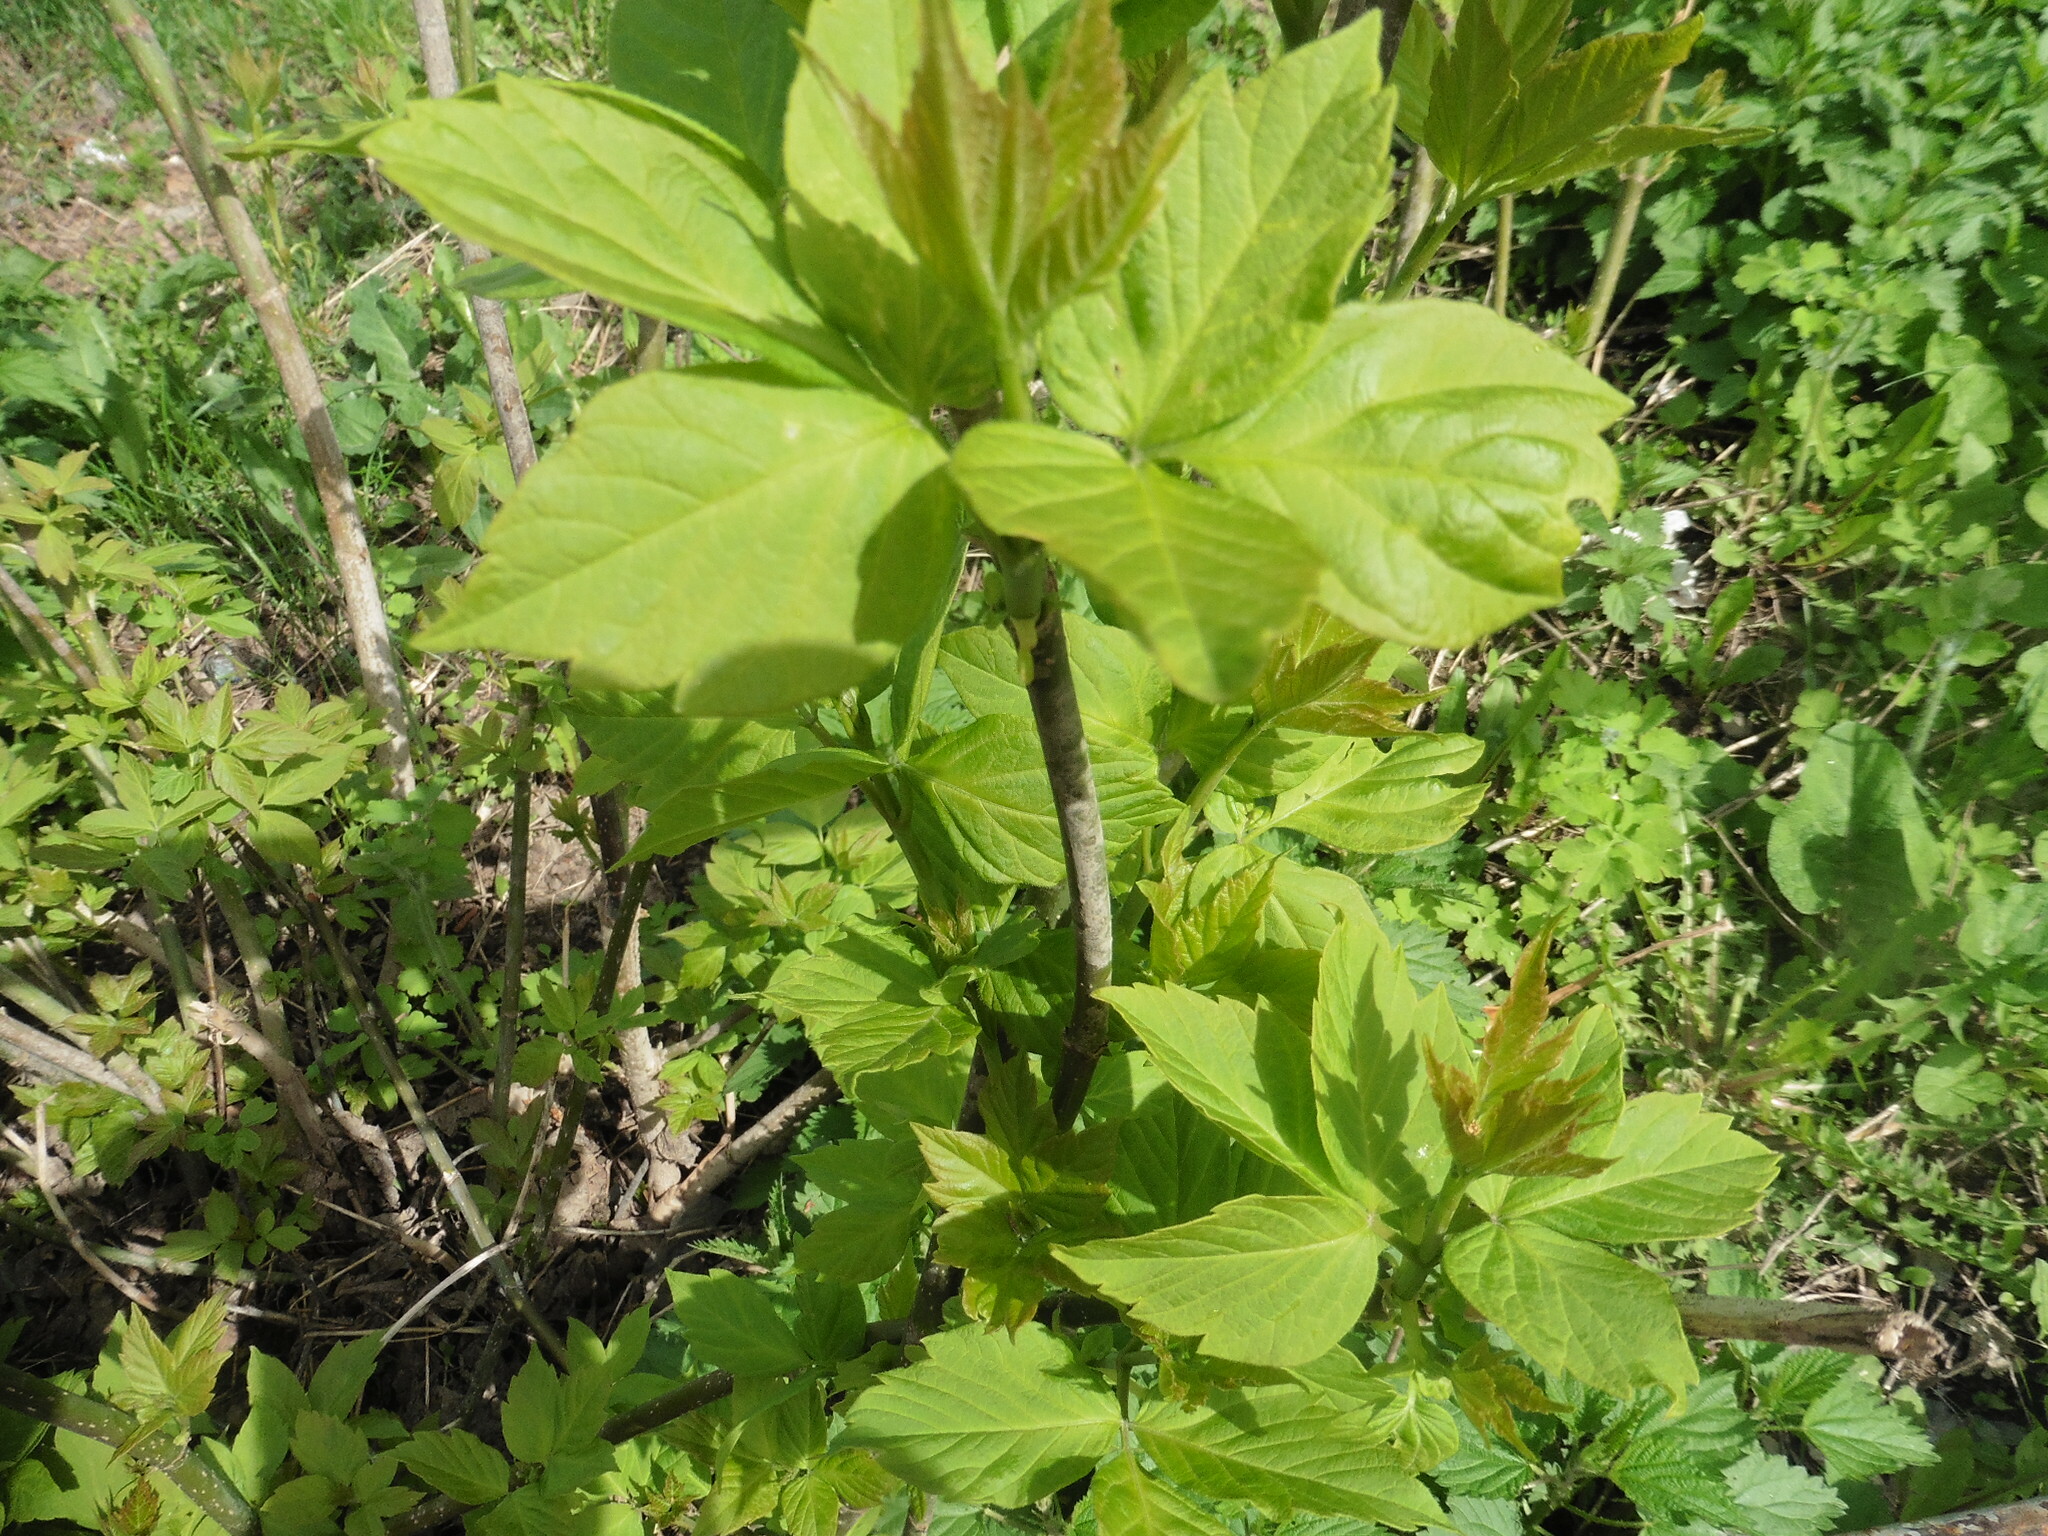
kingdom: Plantae
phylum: Tracheophyta
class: Magnoliopsida
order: Sapindales
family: Sapindaceae
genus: Acer
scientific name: Acer negundo
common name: Ashleaf maple
